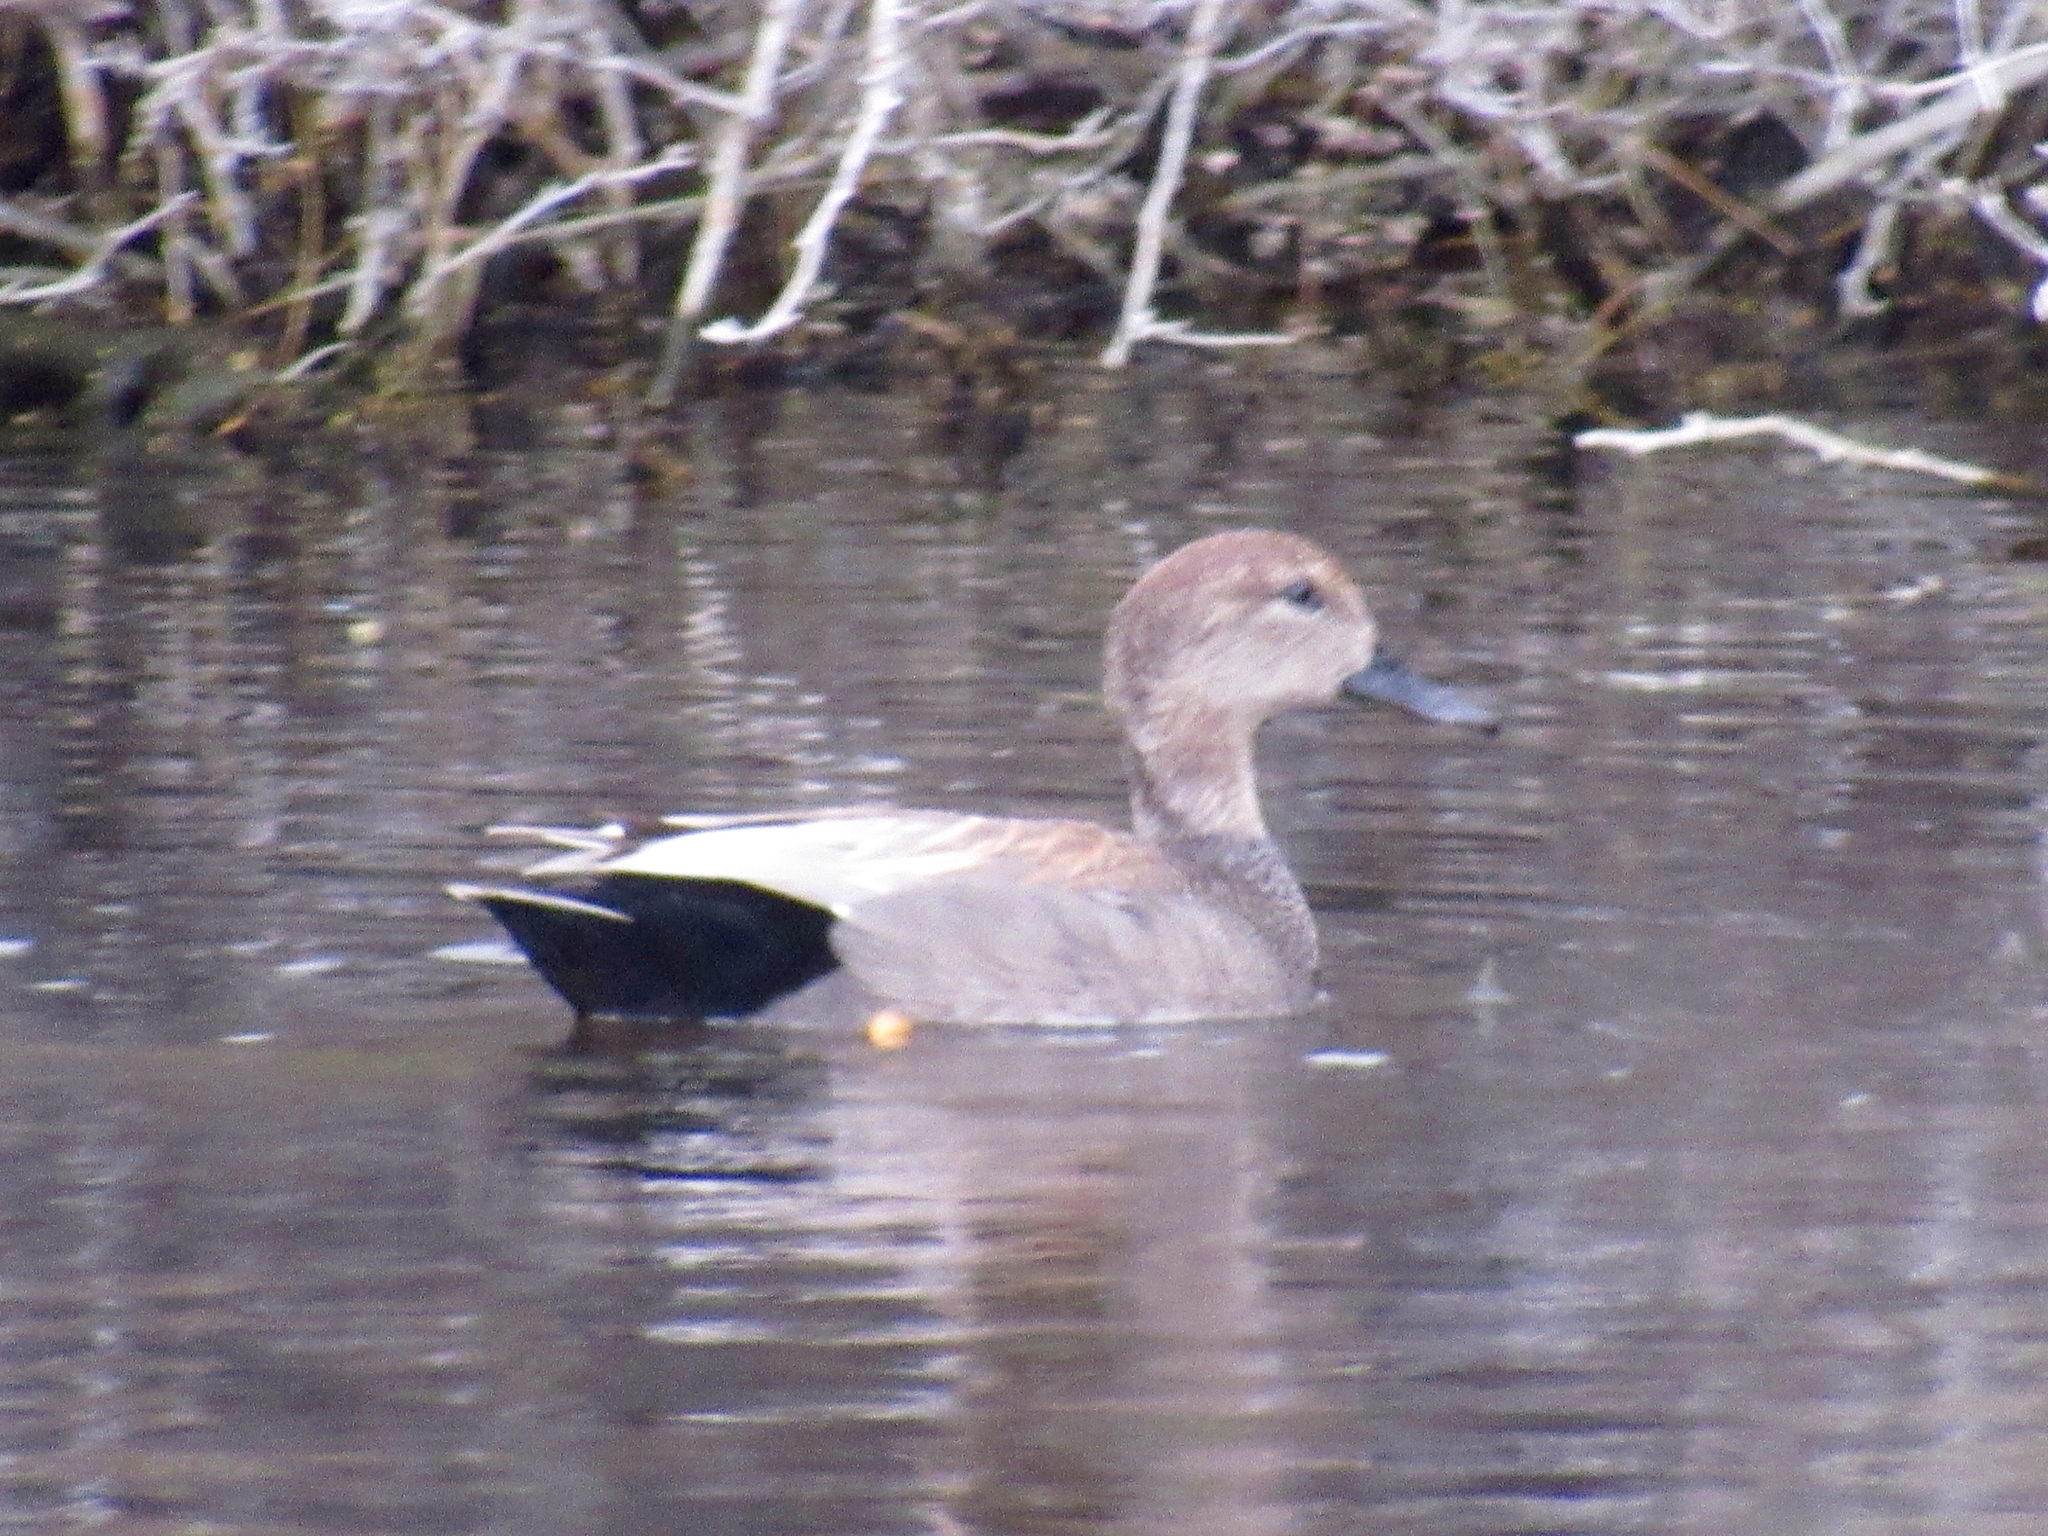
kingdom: Animalia
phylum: Chordata
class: Aves
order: Anseriformes
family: Anatidae
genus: Mareca
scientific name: Mareca strepera
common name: Gadwall
